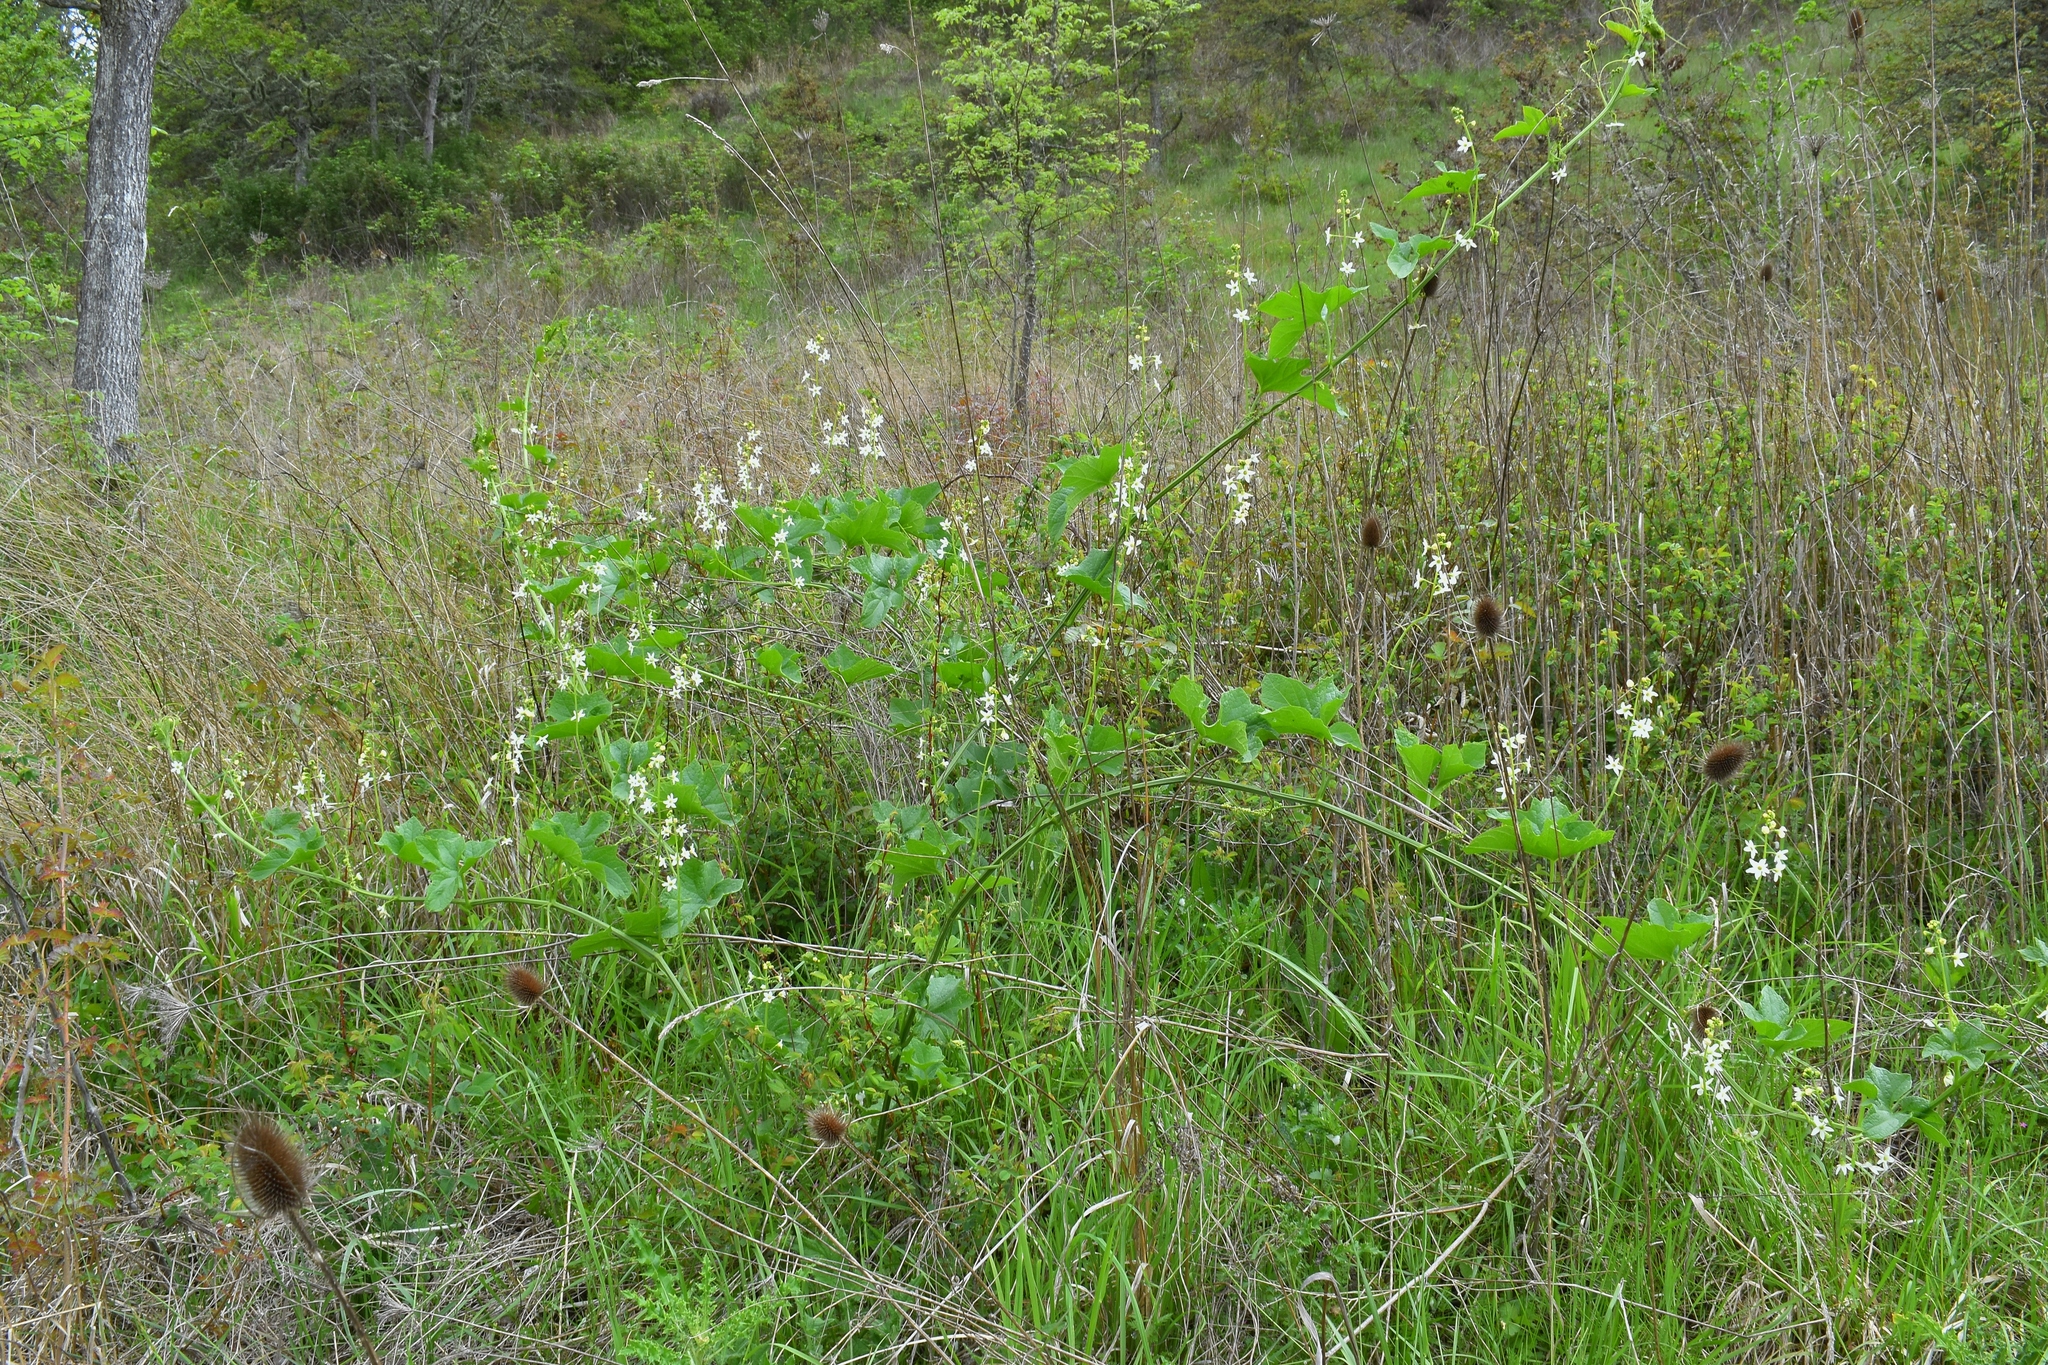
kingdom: Plantae
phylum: Tracheophyta
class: Magnoliopsida
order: Cucurbitales
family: Cucurbitaceae
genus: Marah
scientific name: Marah oregana
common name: Coastal manroot
